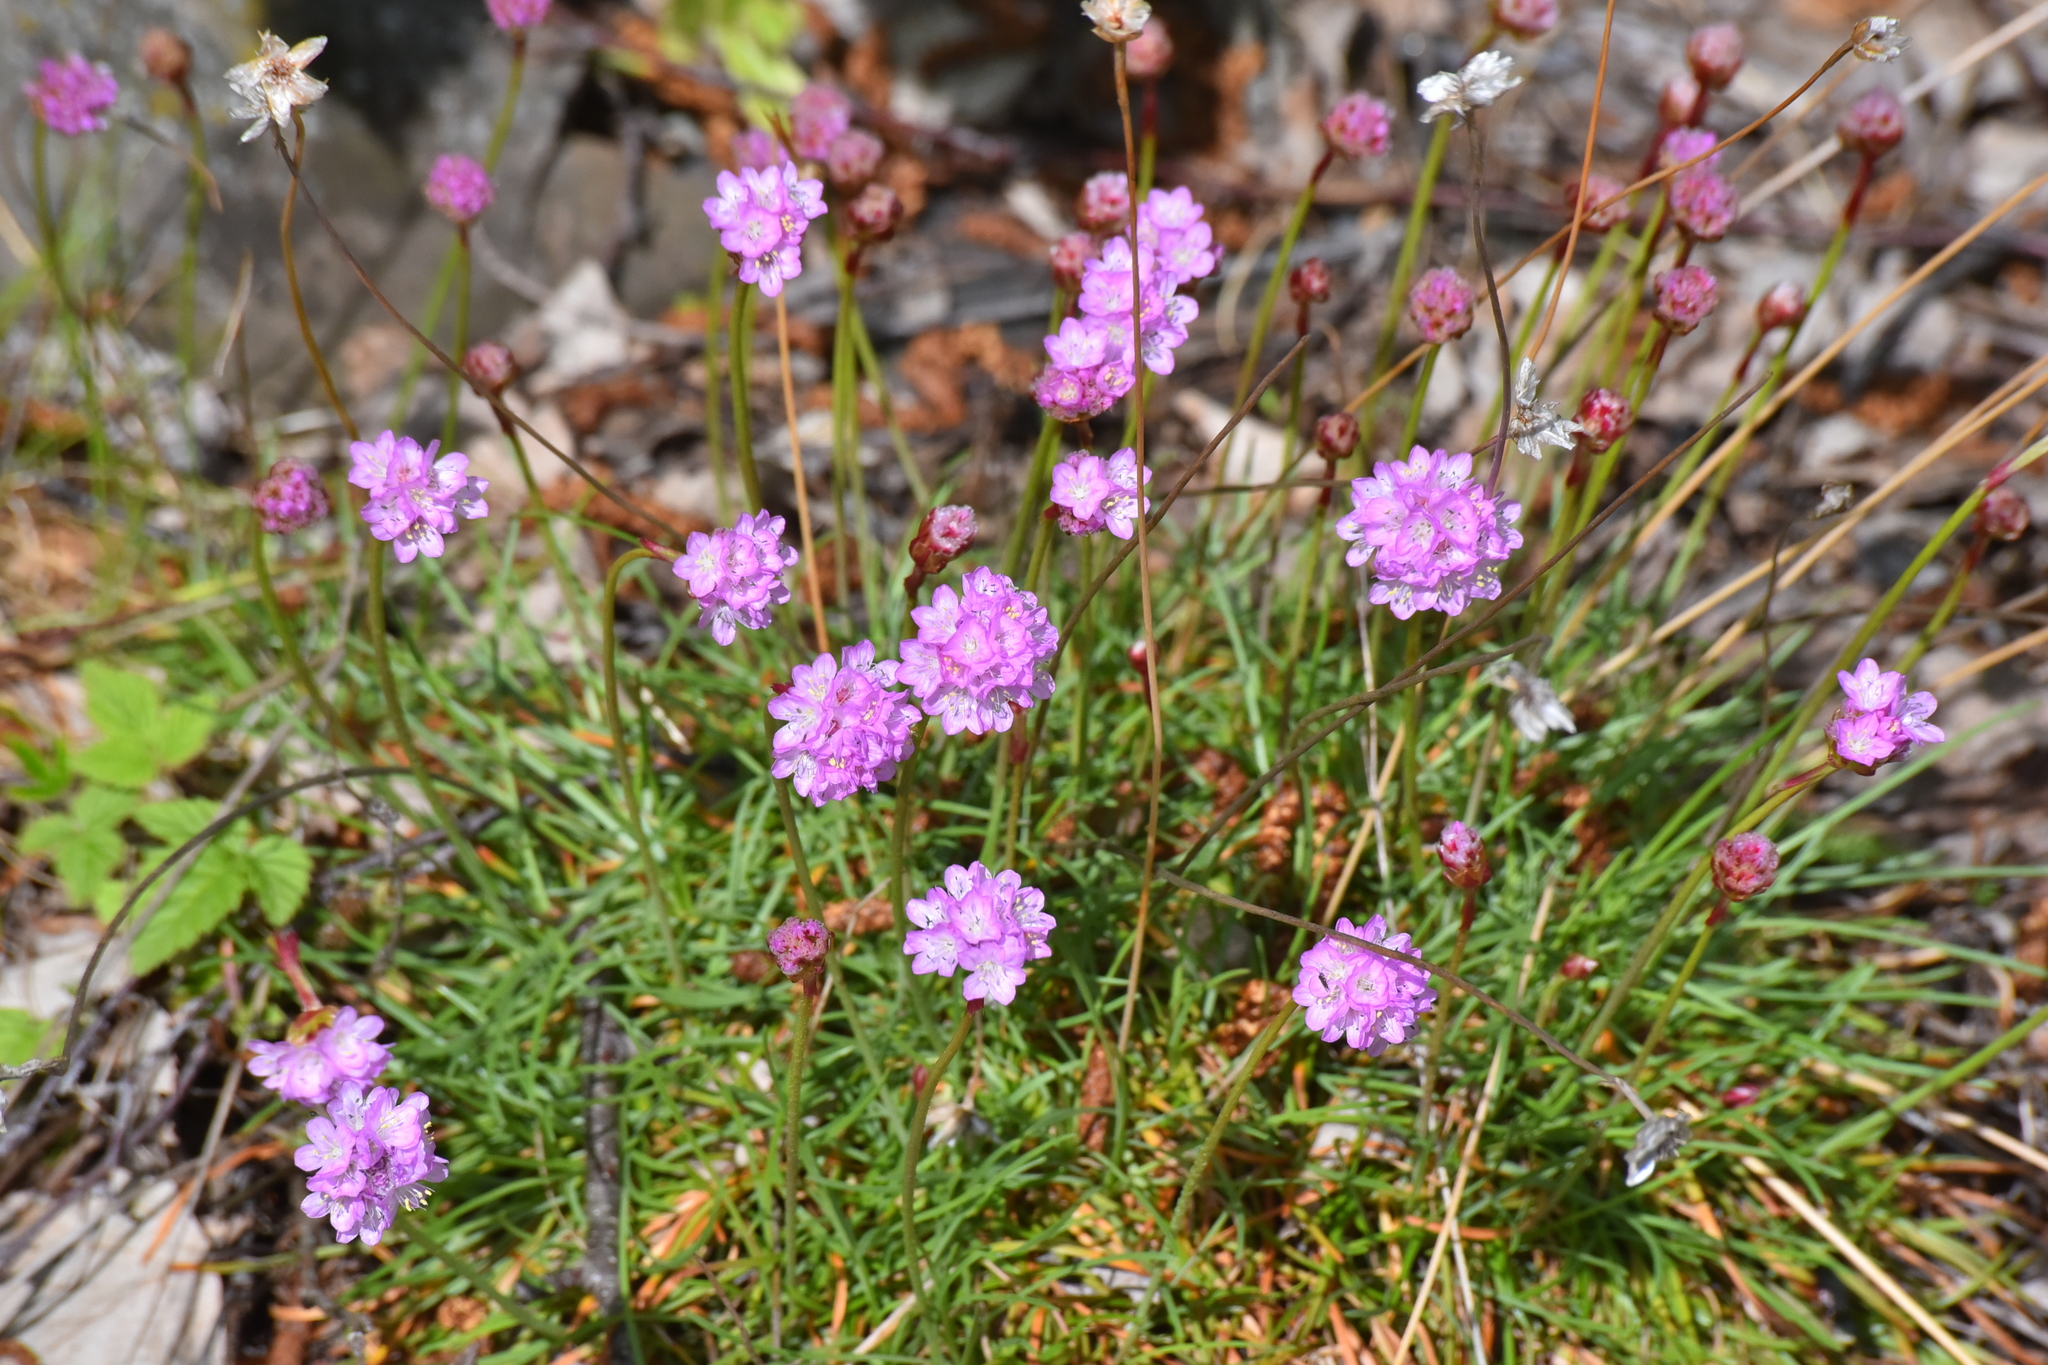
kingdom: Plantae
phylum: Tracheophyta
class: Magnoliopsida
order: Caryophyllales
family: Plumbaginaceae
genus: Armeria
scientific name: Armeria maritima
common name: Thrift
